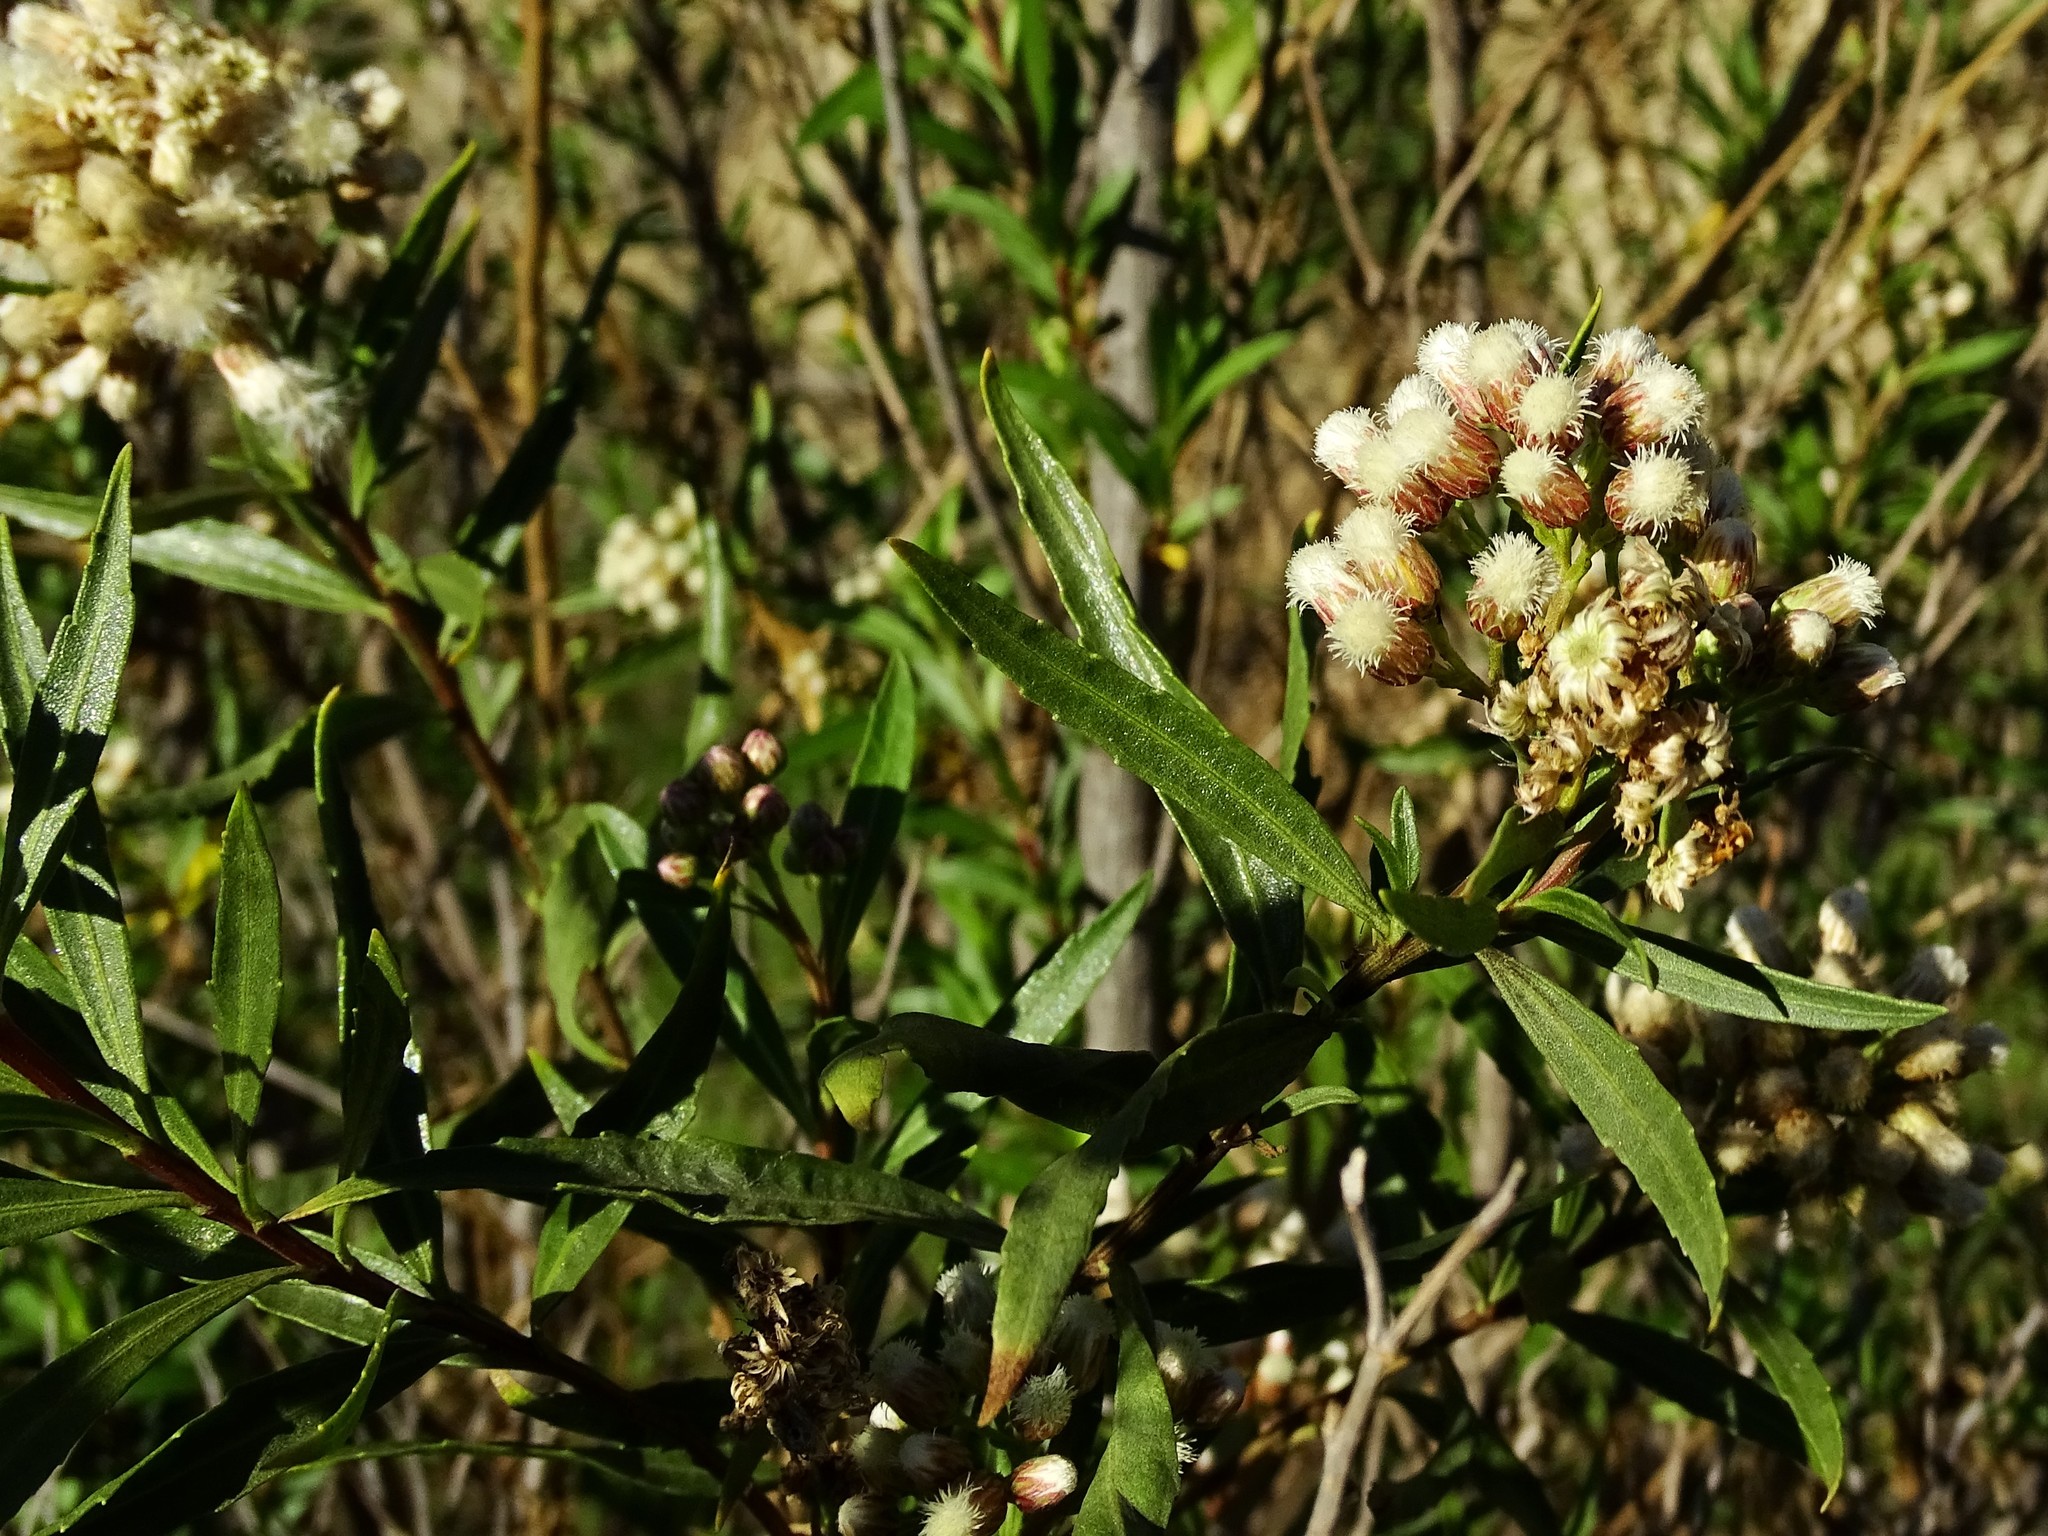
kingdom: Plantae
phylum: Tracheophyta
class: Magnoliopsida
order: Asterales
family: Asteraceae
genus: Baccharis
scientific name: Baccharis salicifolia
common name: Sticky baccharis
